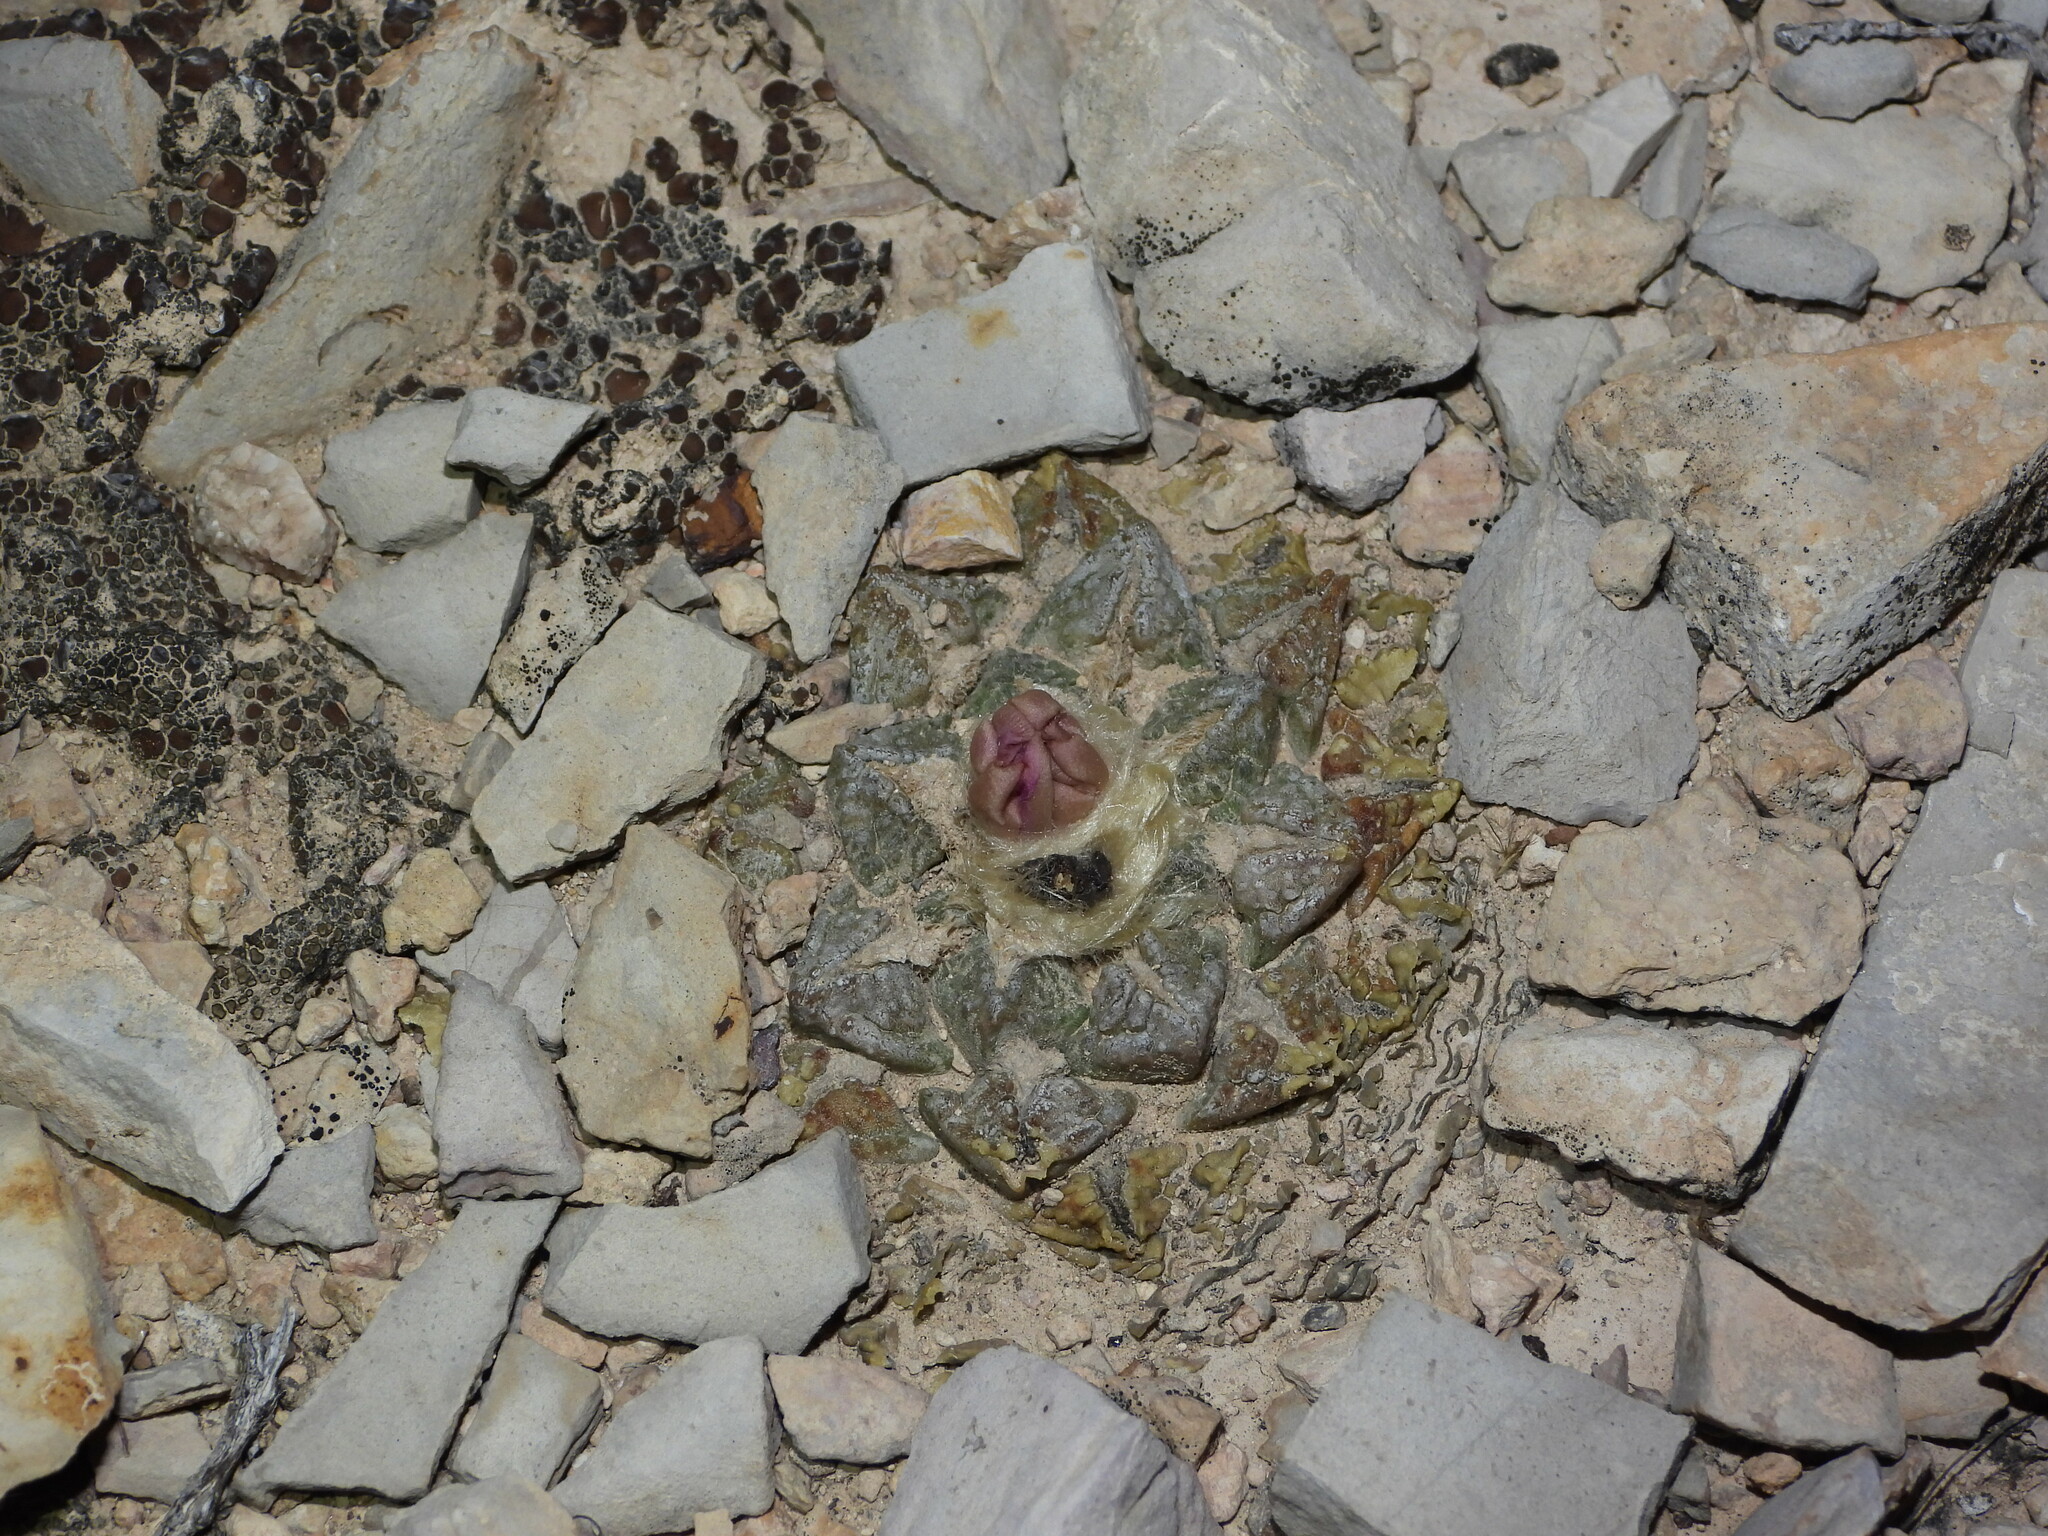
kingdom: Plantae
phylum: Tracheophyta
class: Magnoliopsida
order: Caryophyllales
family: Cactaceae
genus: Ariocarpus
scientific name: Ariocarpus fissuratus
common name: Chautle-living rock
